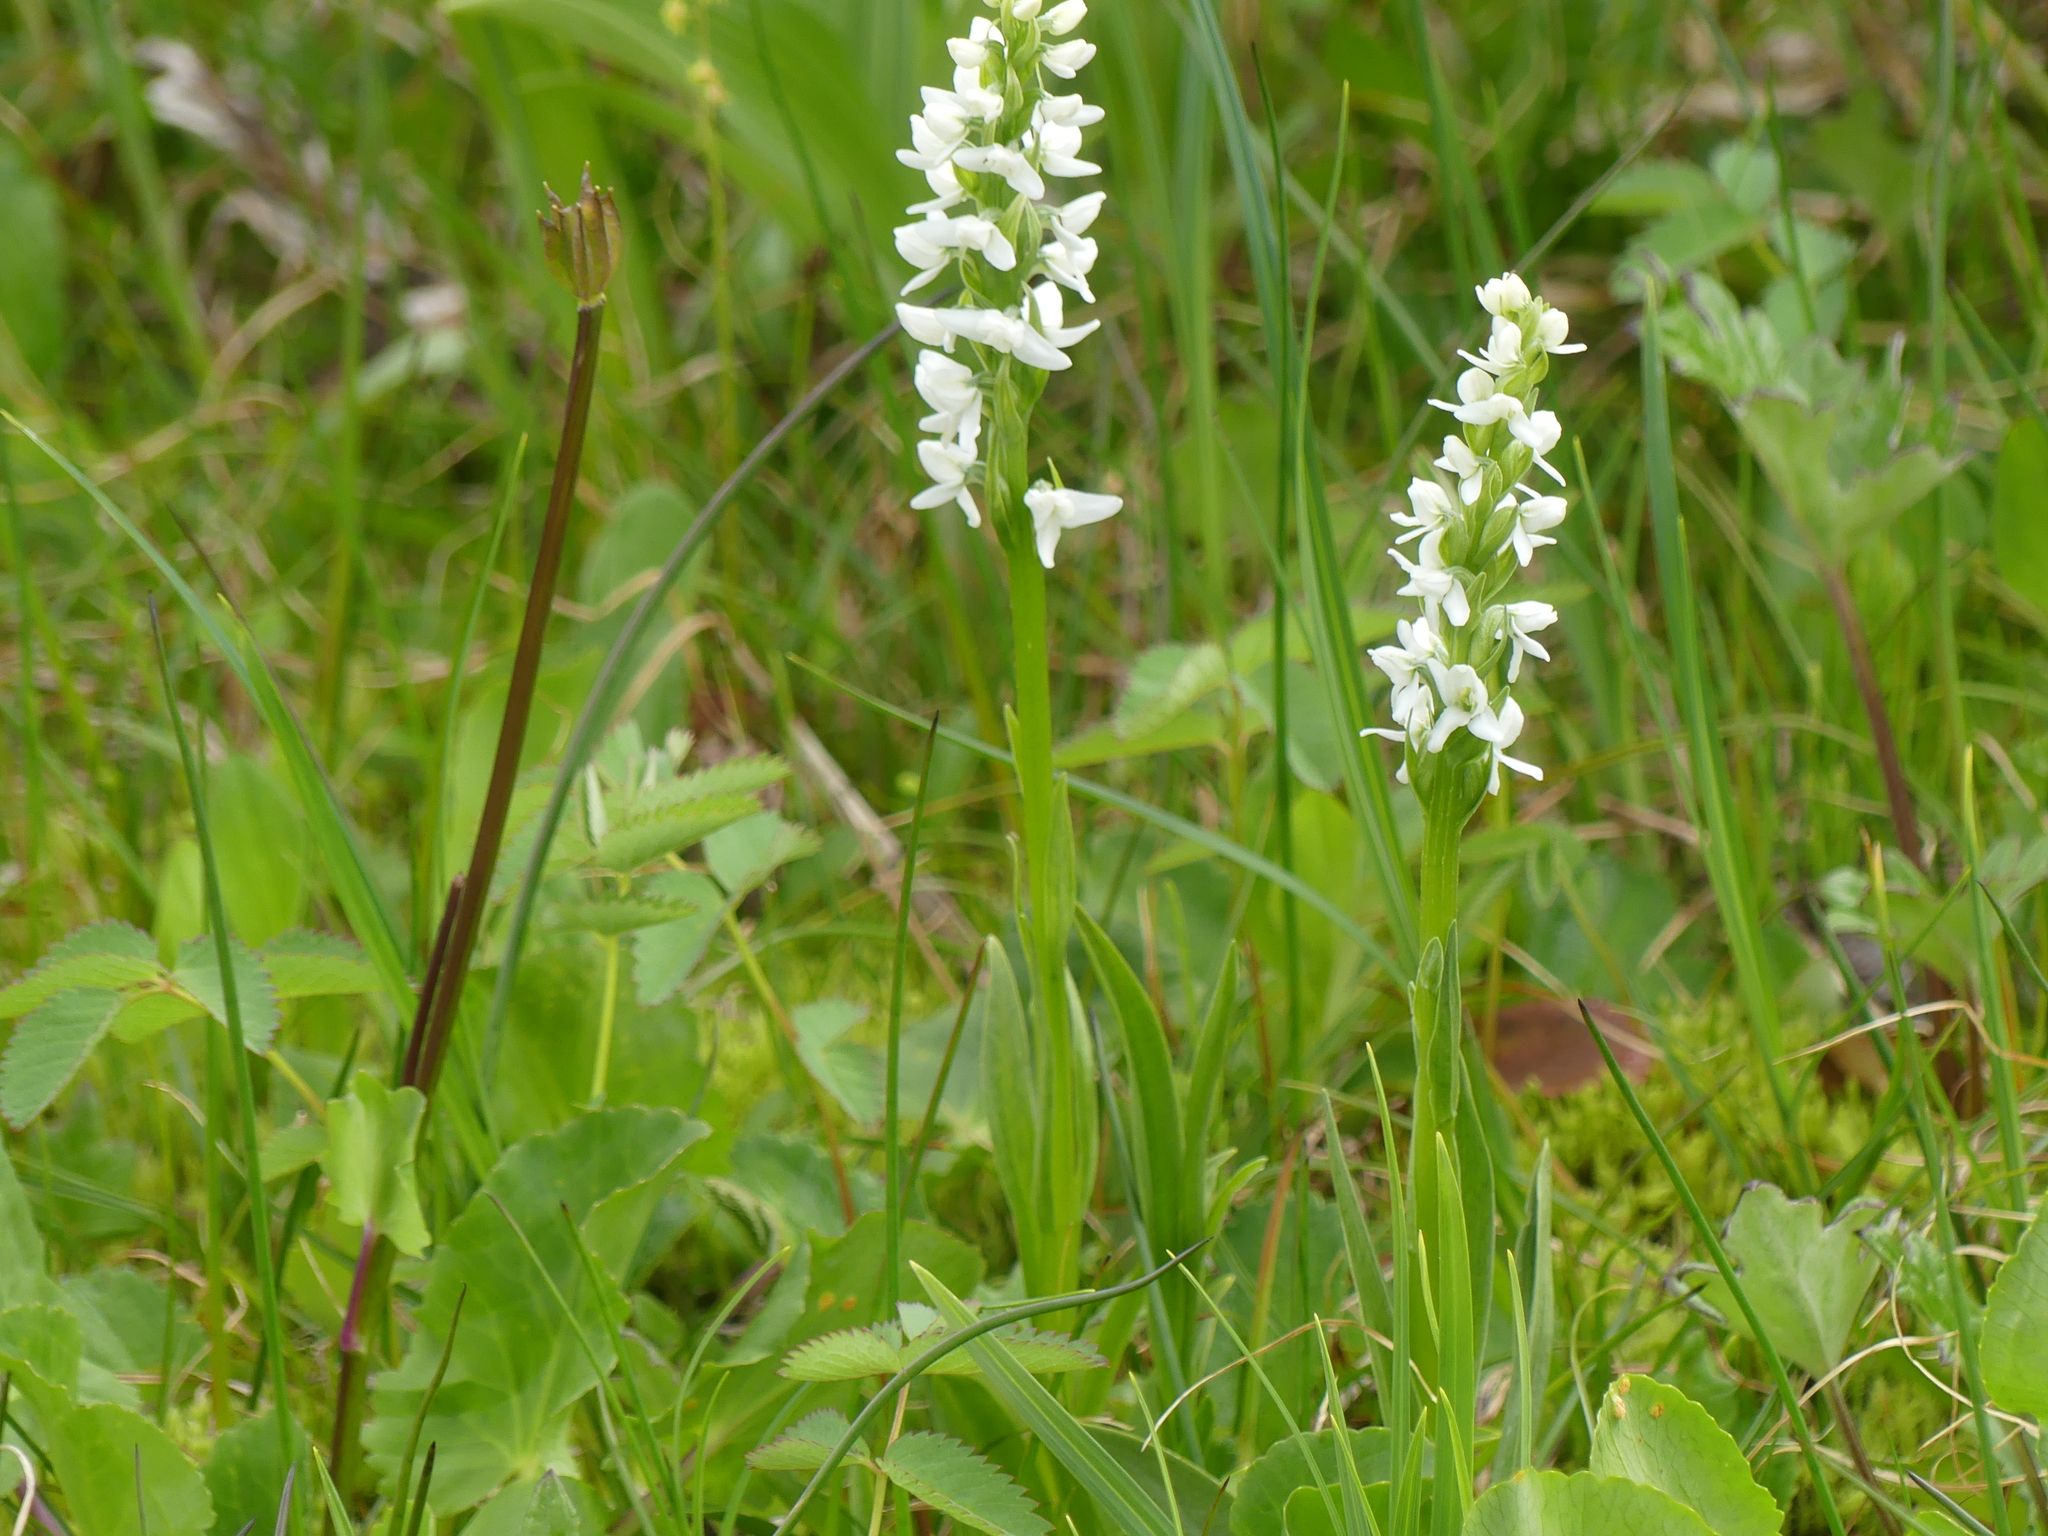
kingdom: Plantae
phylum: Tracheophyta
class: Liliopsida
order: Asparagales
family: Orchidaceae
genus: Platanthera
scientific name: Platanthera dilatata
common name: Bog candles
